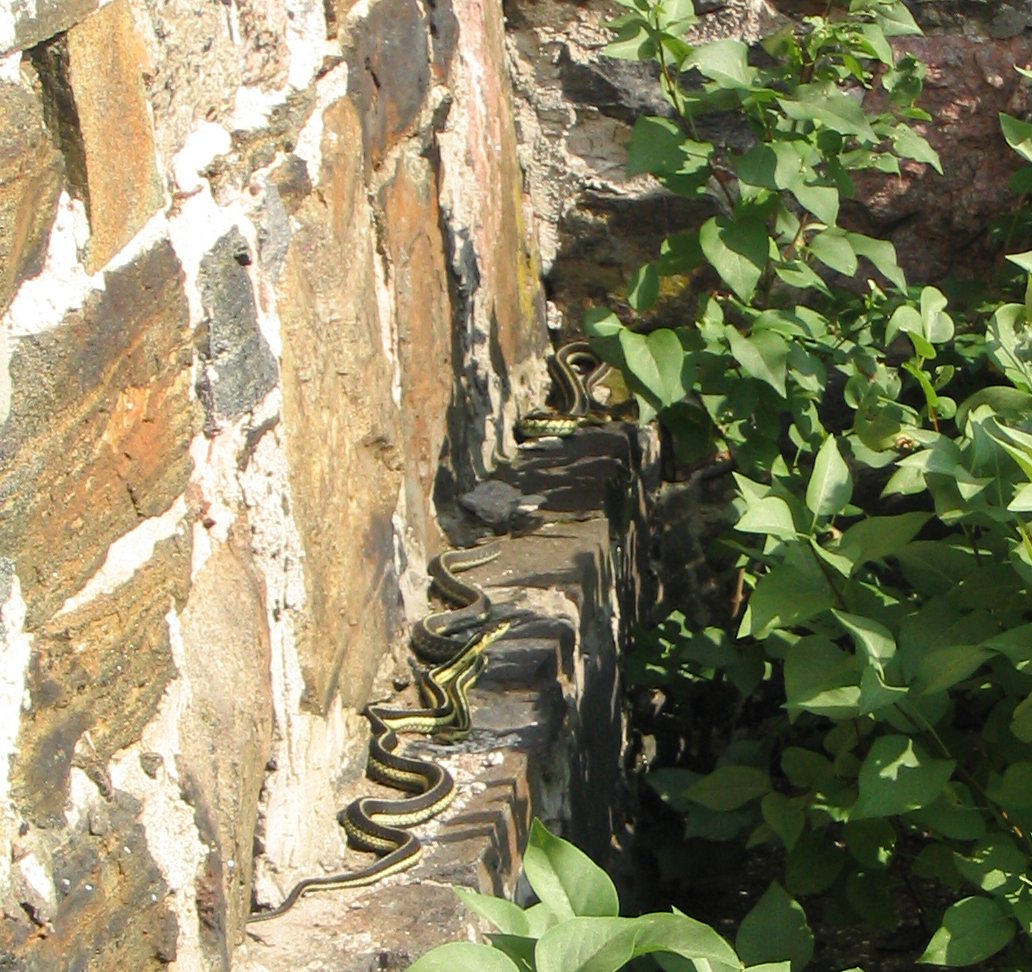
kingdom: Animalia
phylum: Chordata
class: Squamata
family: Colubridae
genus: Thamnophis
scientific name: Thamnophis sirtalis
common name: Common garter snake
